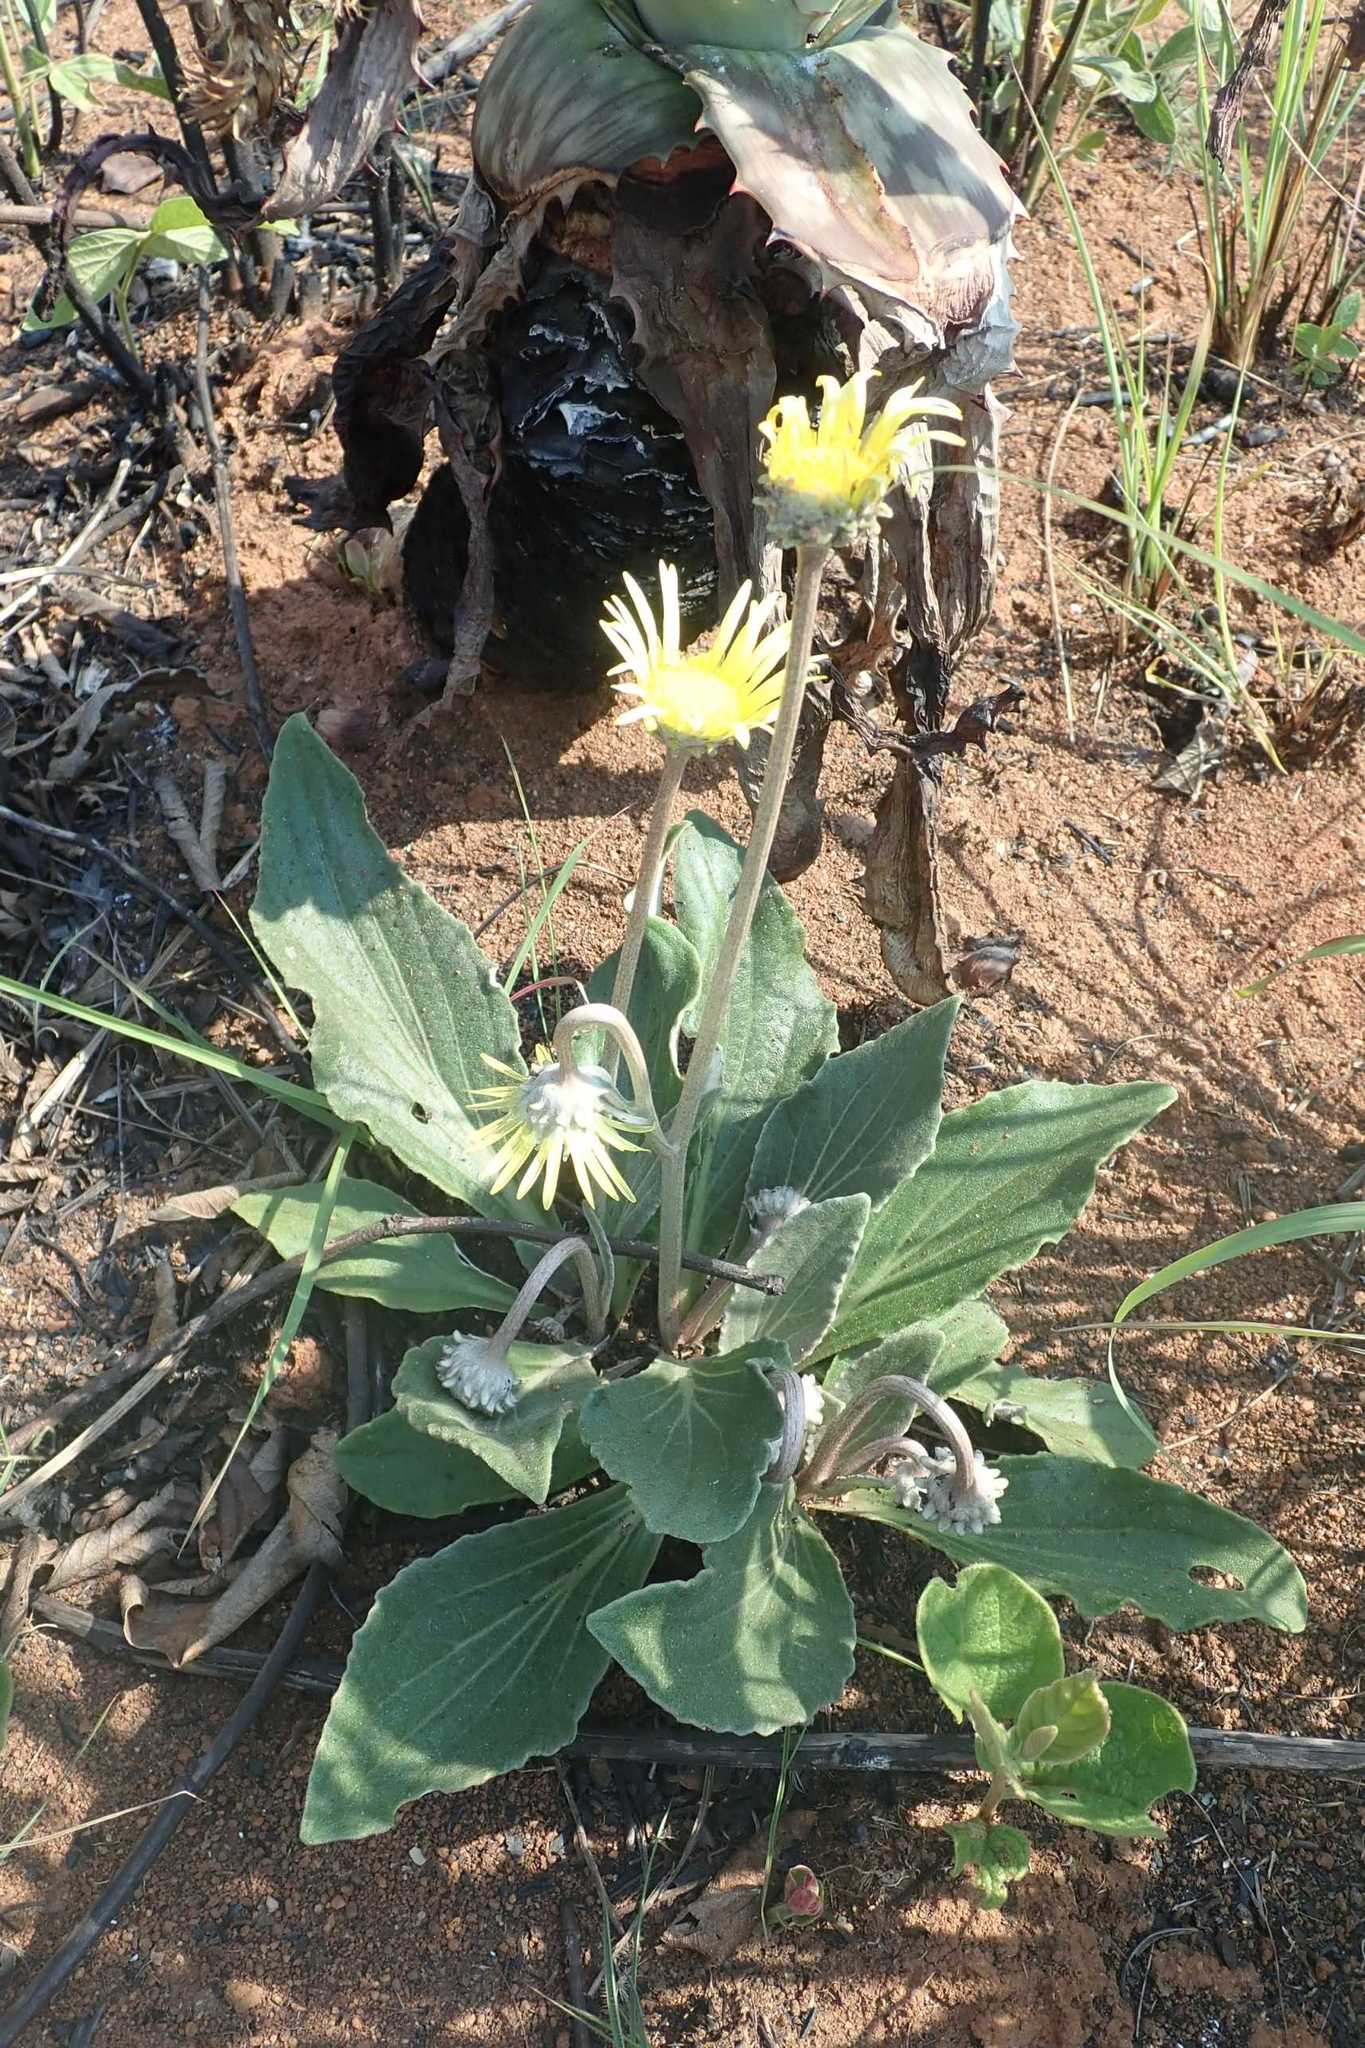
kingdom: Plantae
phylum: Tracheophyta
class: Magnoliopsida
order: Asterales
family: Asteraceae
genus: Haplocarpha
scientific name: Haplocarpha scaposa
